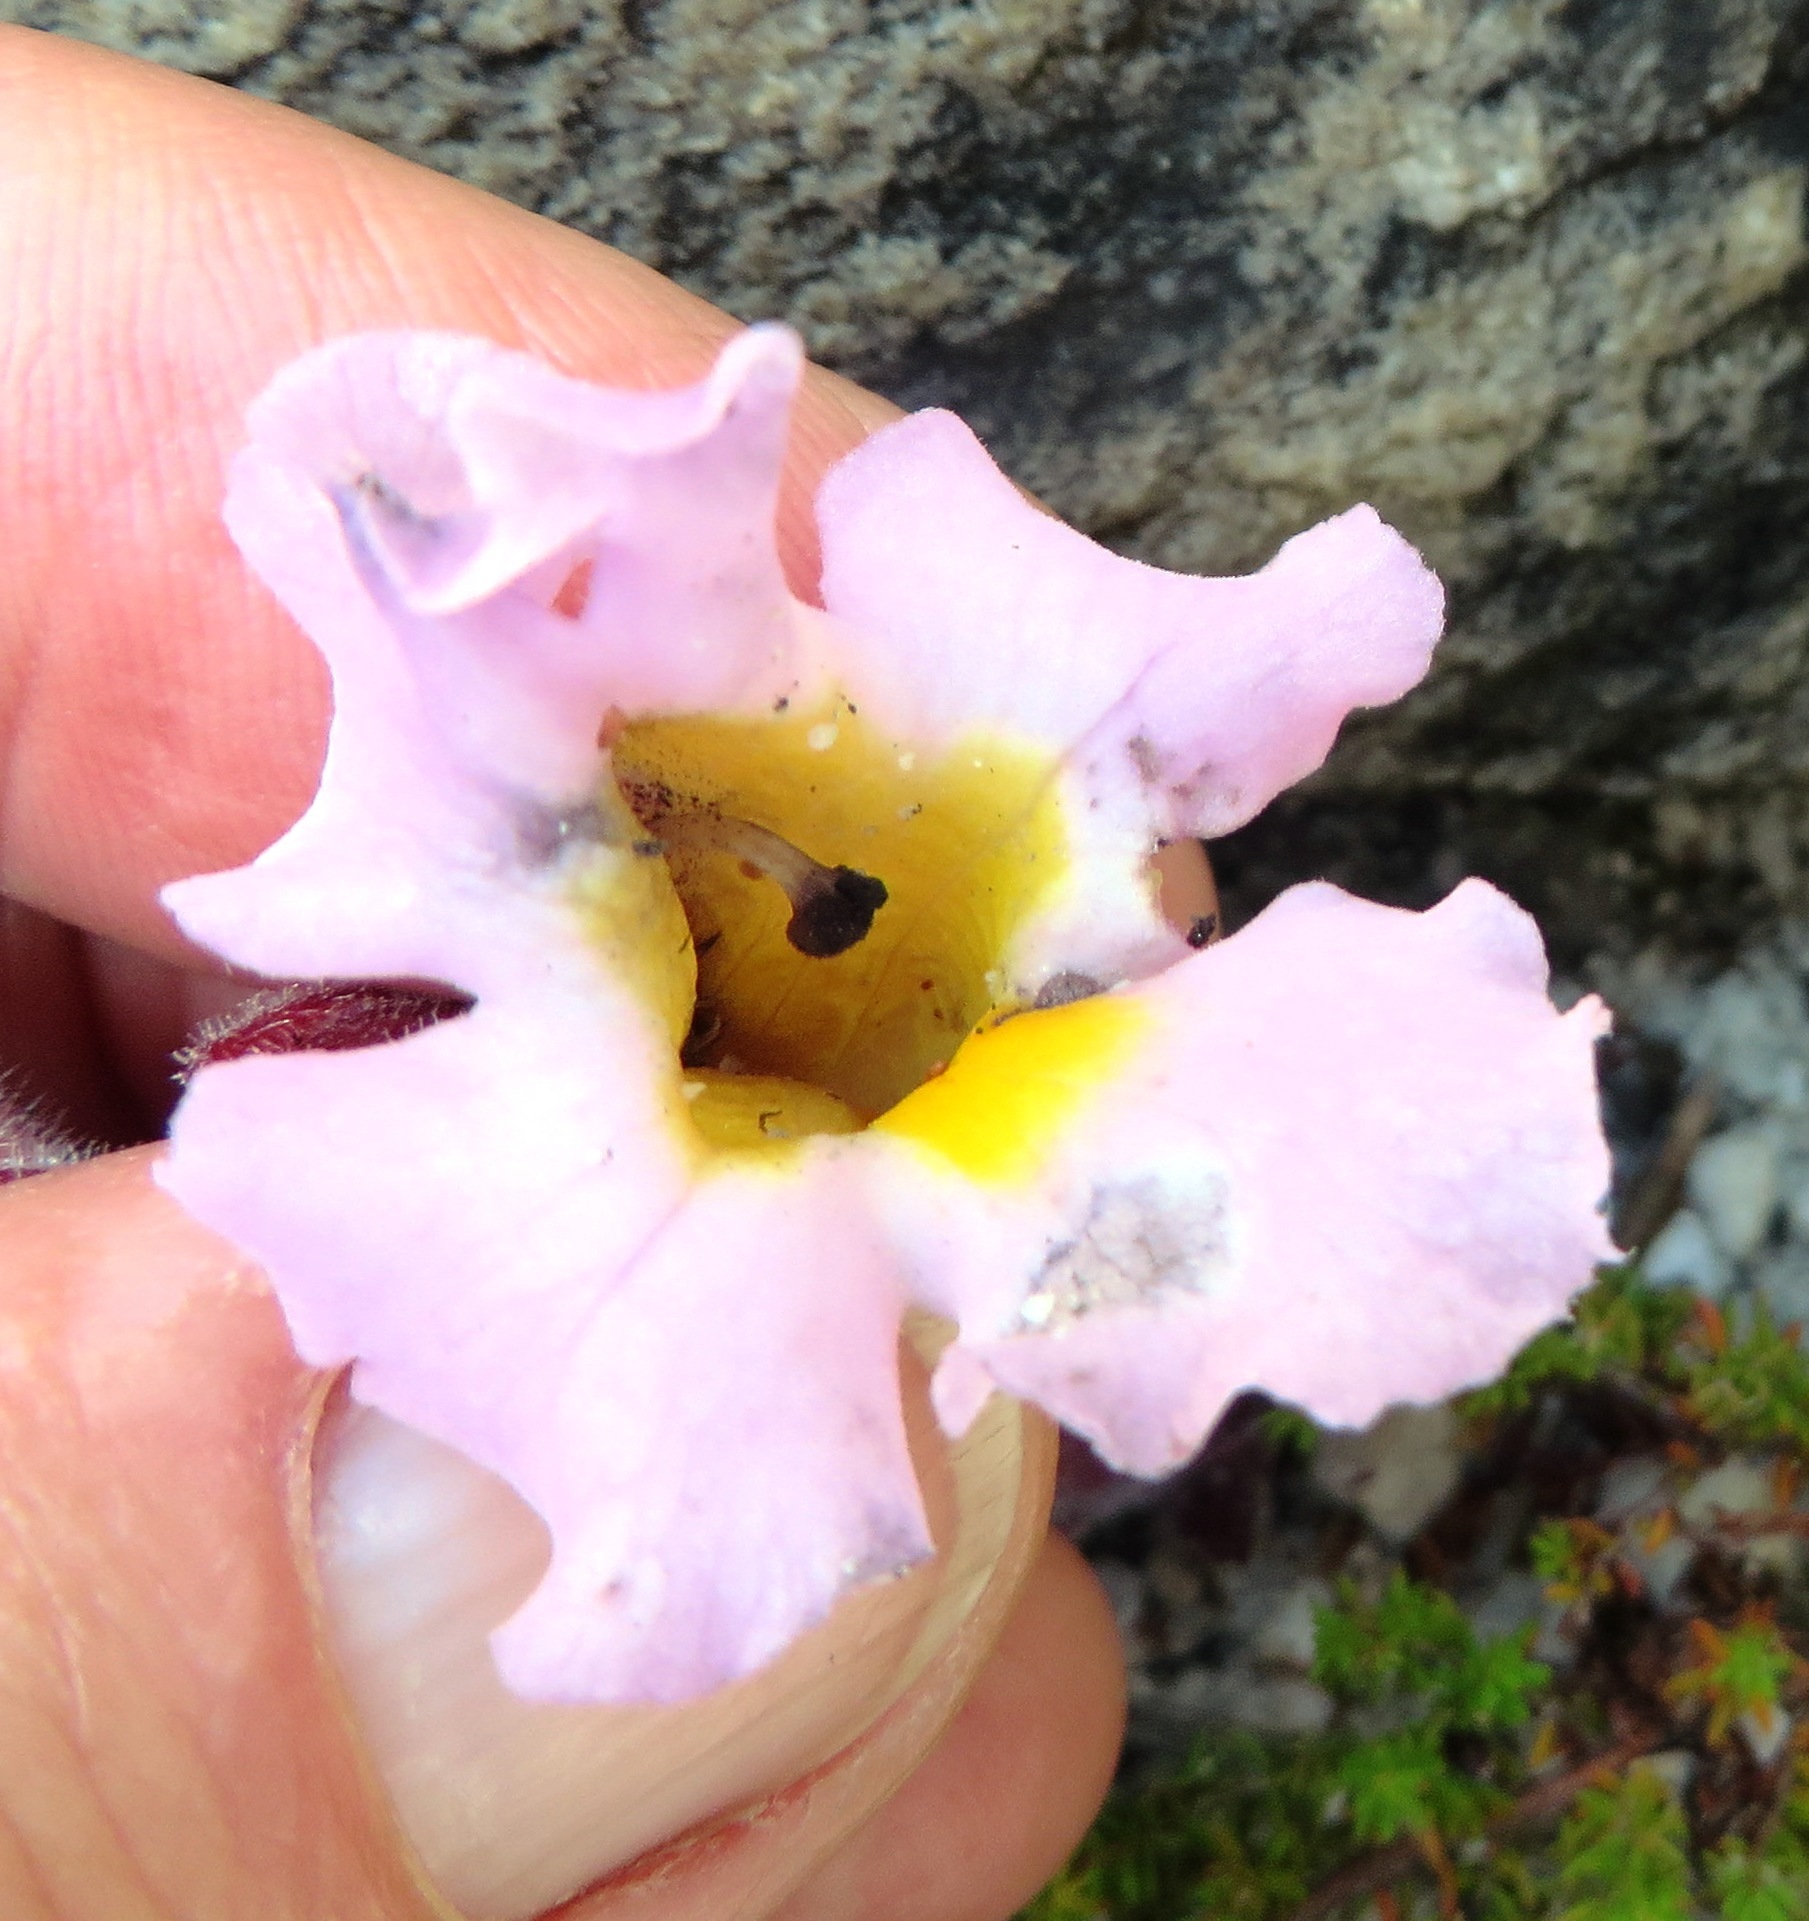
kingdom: Plantae
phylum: Tracheophyta
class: Magnoliopsida
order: Lamiales
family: Orobanchaceae
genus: Harveya
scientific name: Harveya purpurea
